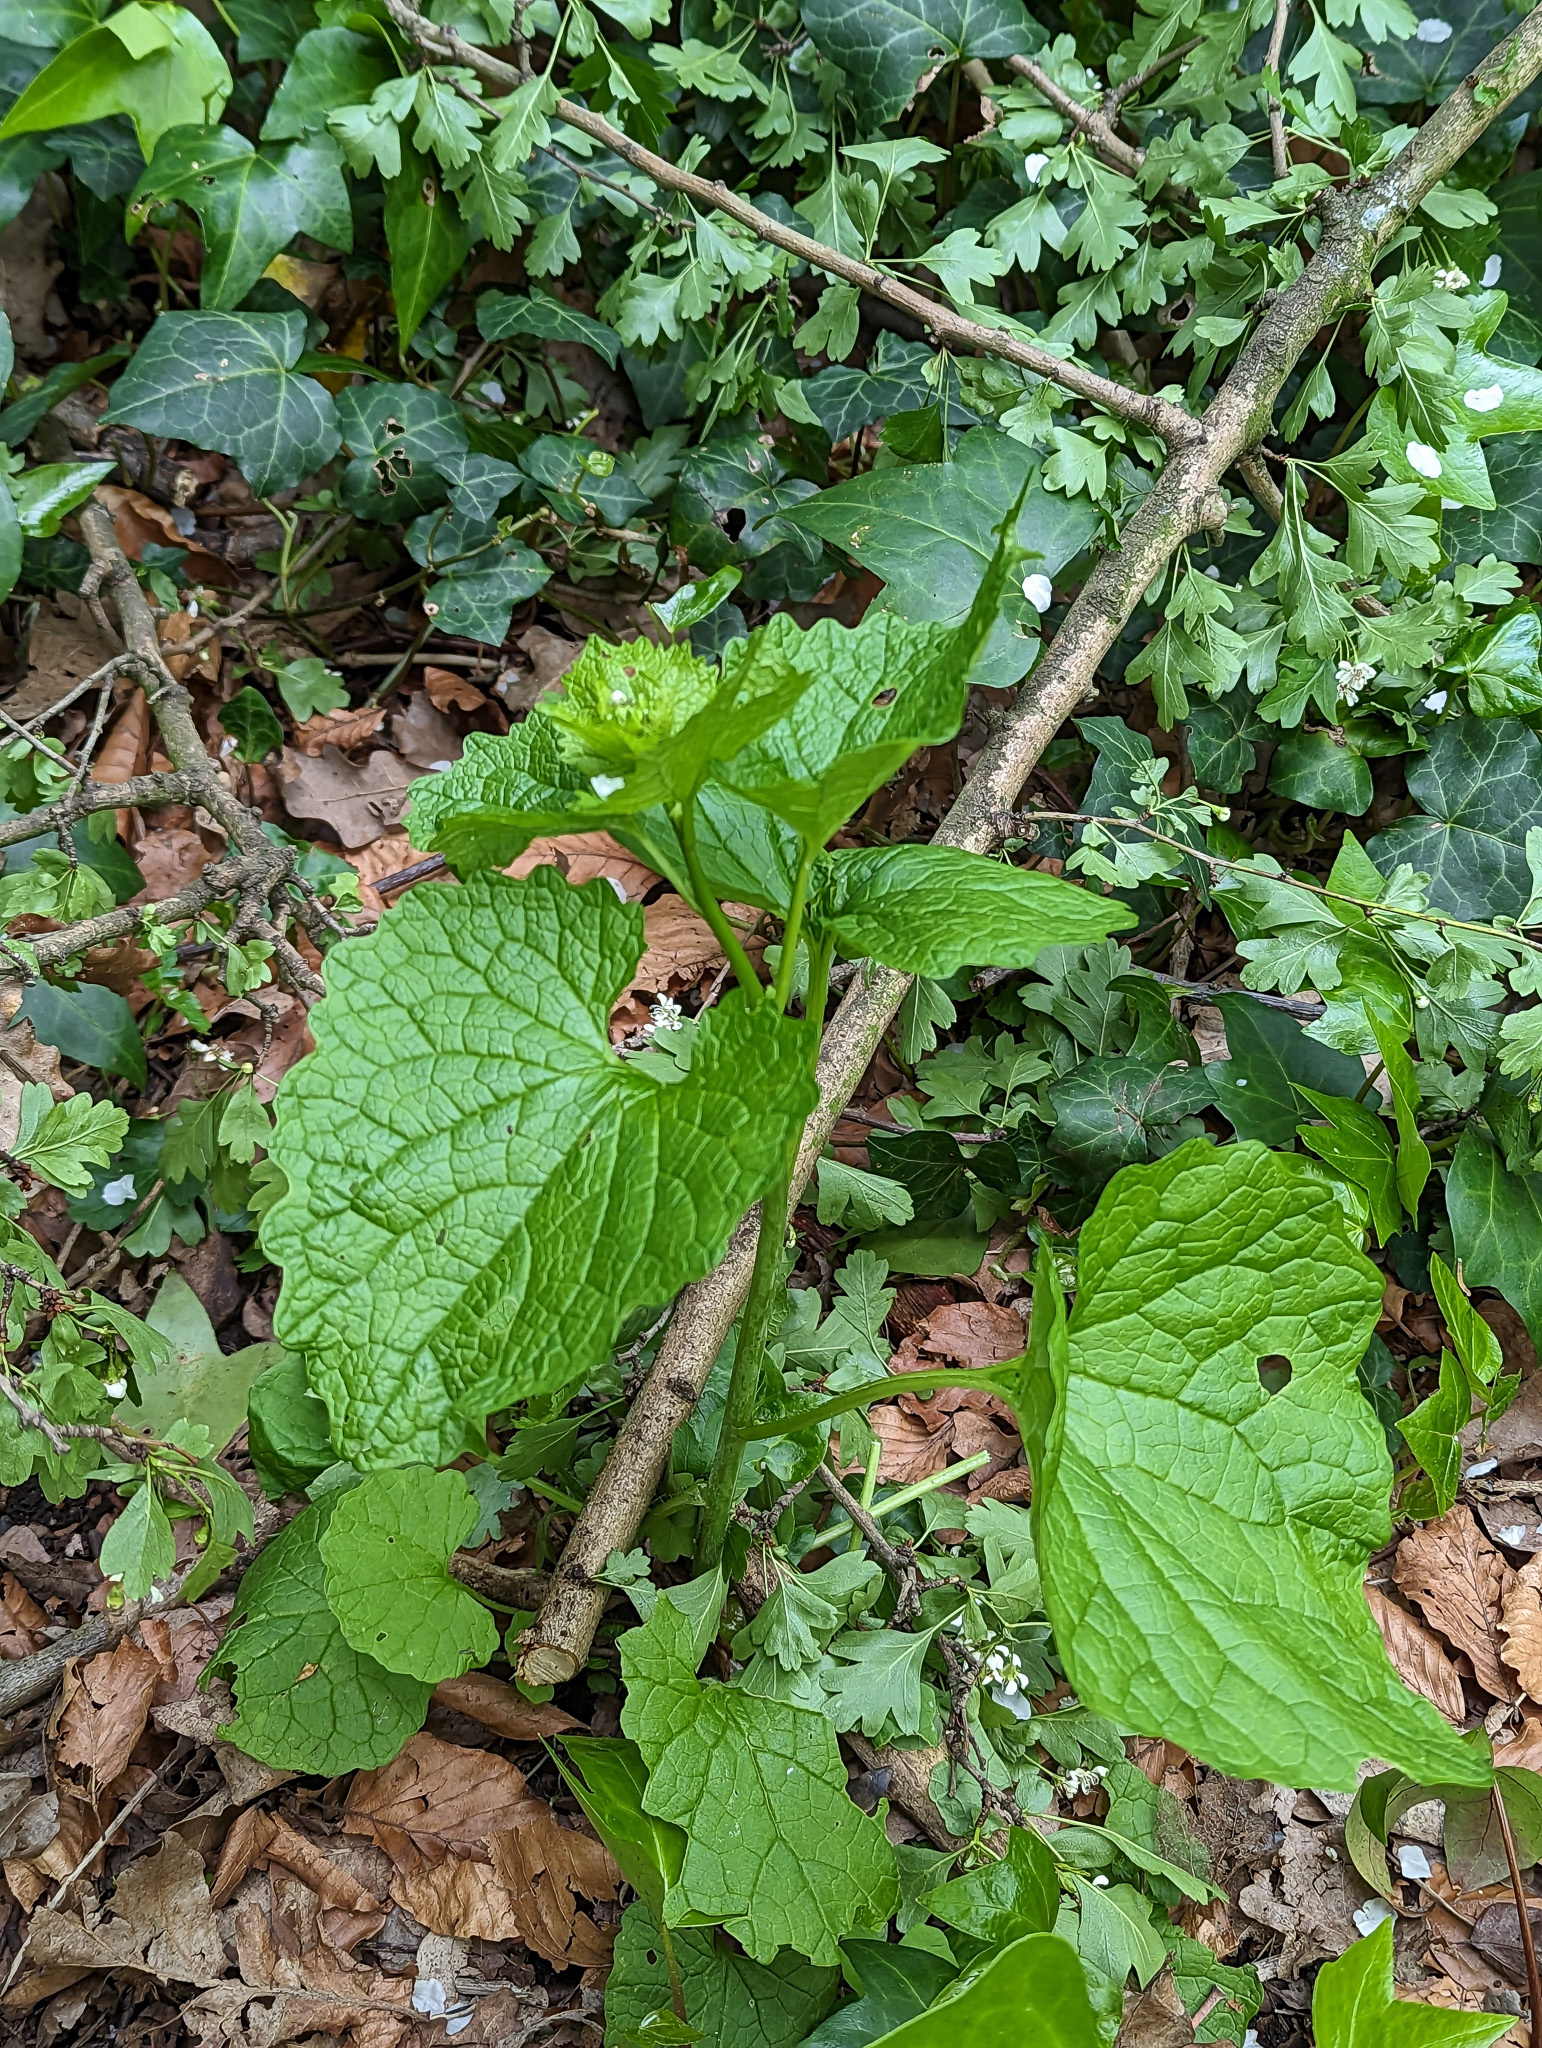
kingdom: Plantae
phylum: Tracheophyta
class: Magnoliopsida
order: Brassicales
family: Brassicaceae
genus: Alliaria
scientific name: Alliaria petiolata
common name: Garlic mustard
